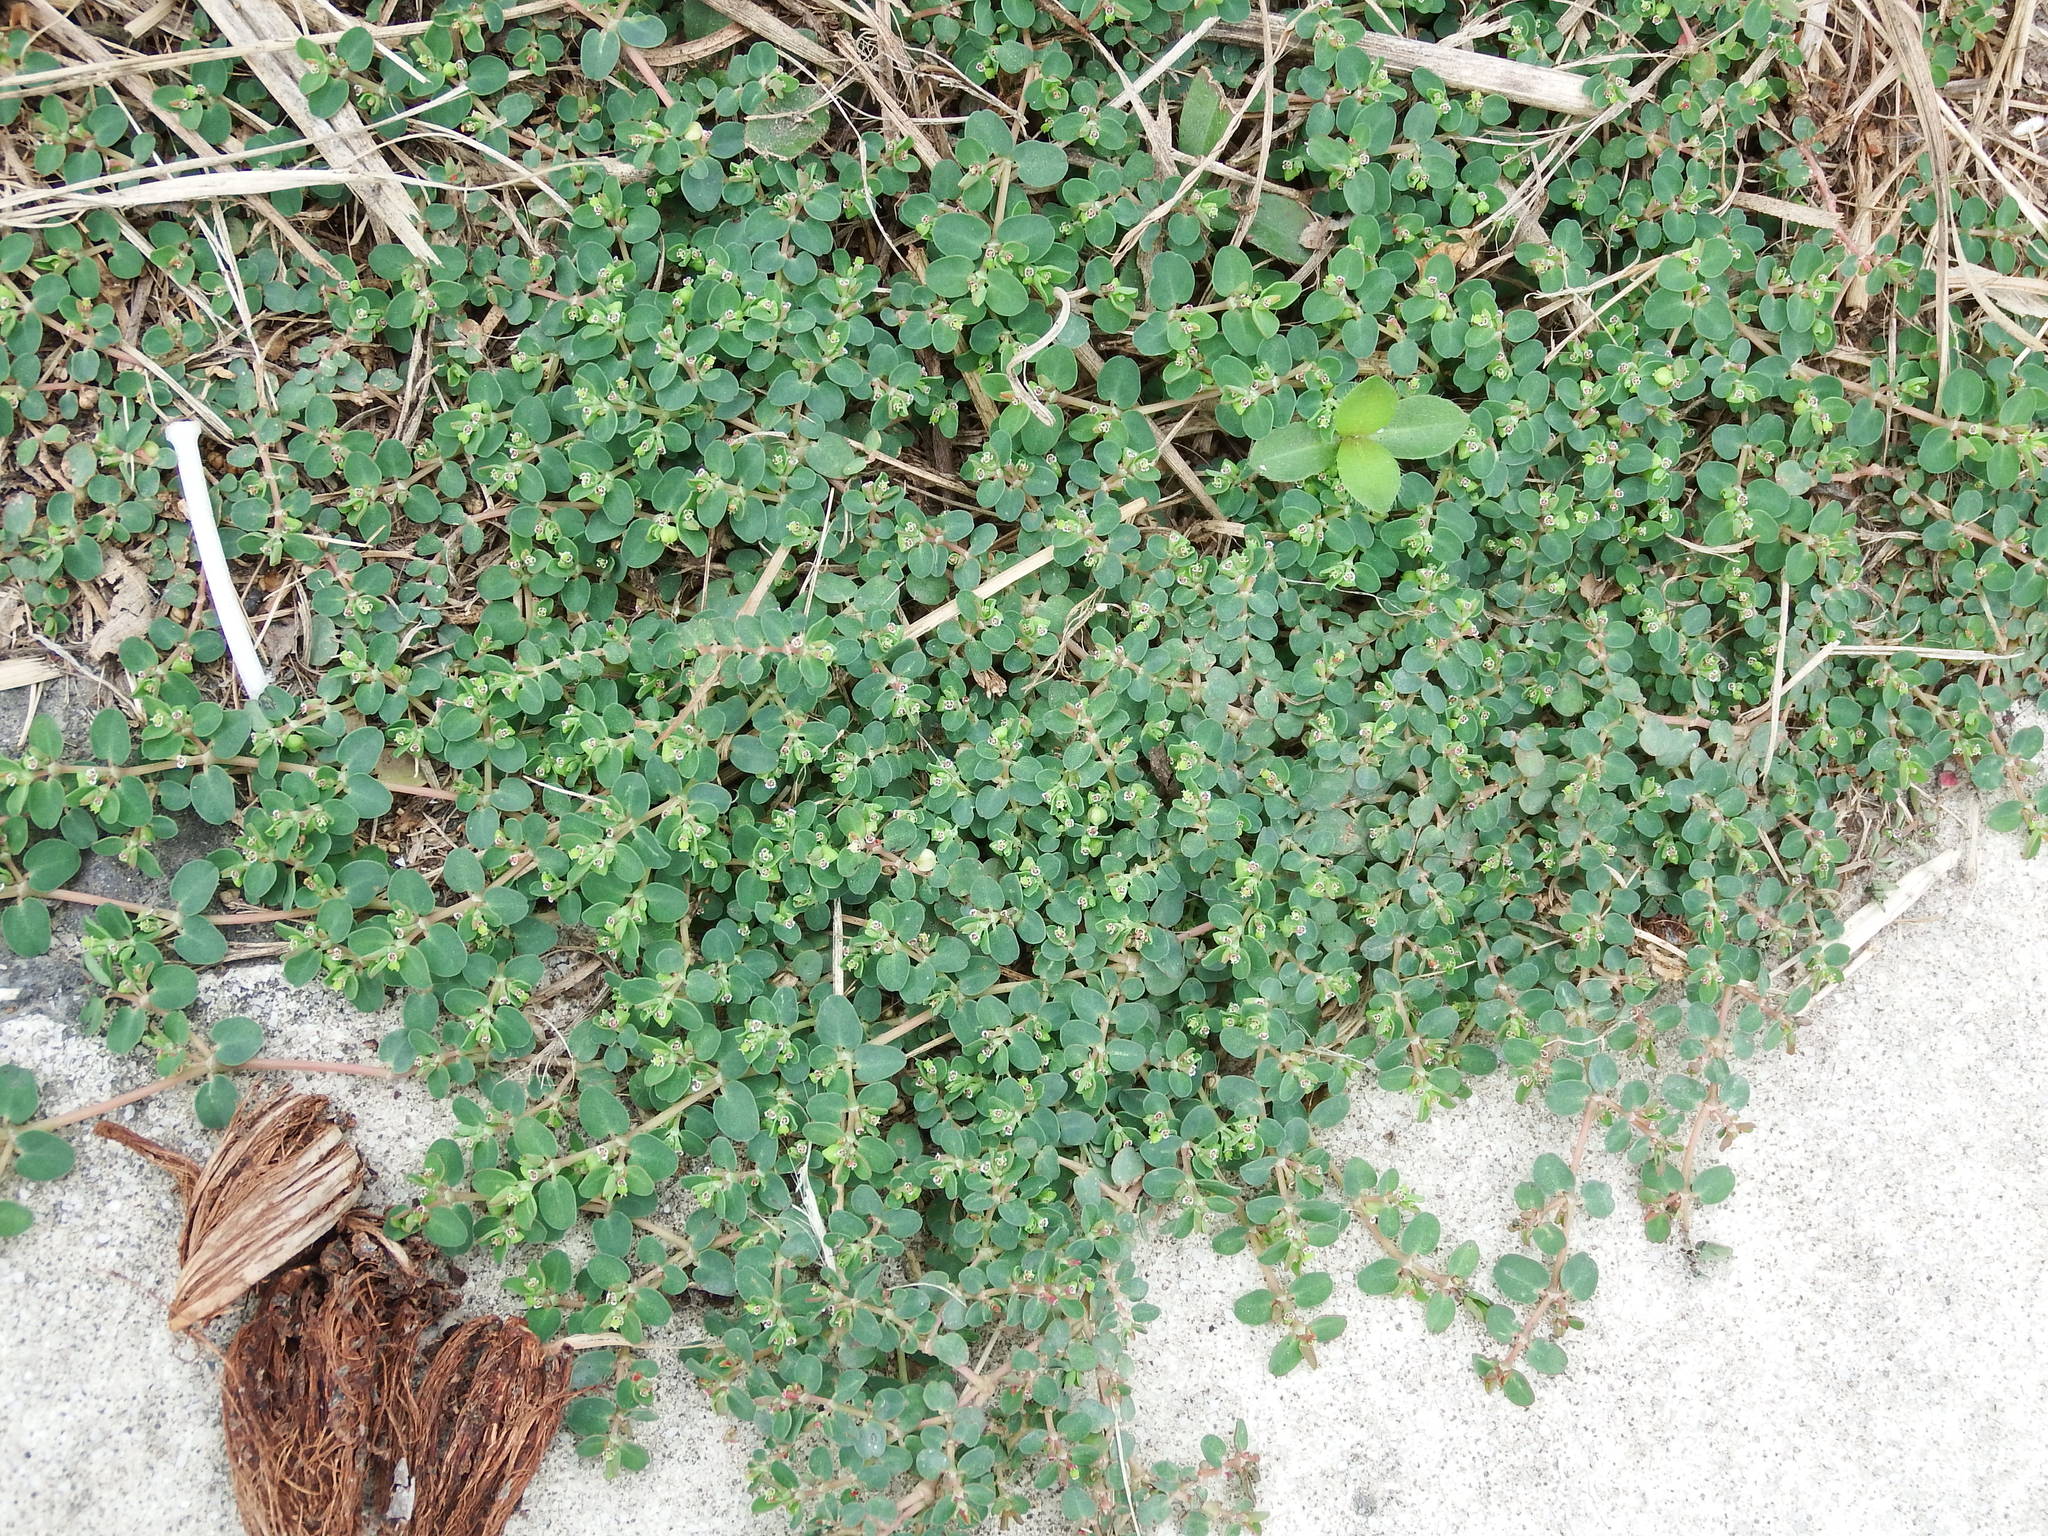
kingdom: Plantae
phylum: Tracheophyta
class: Magnoliopsida
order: Malpighiales
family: Euphorbiaceae
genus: Euphorbia
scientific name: Euphorbia serpens
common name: Matted sandmat
